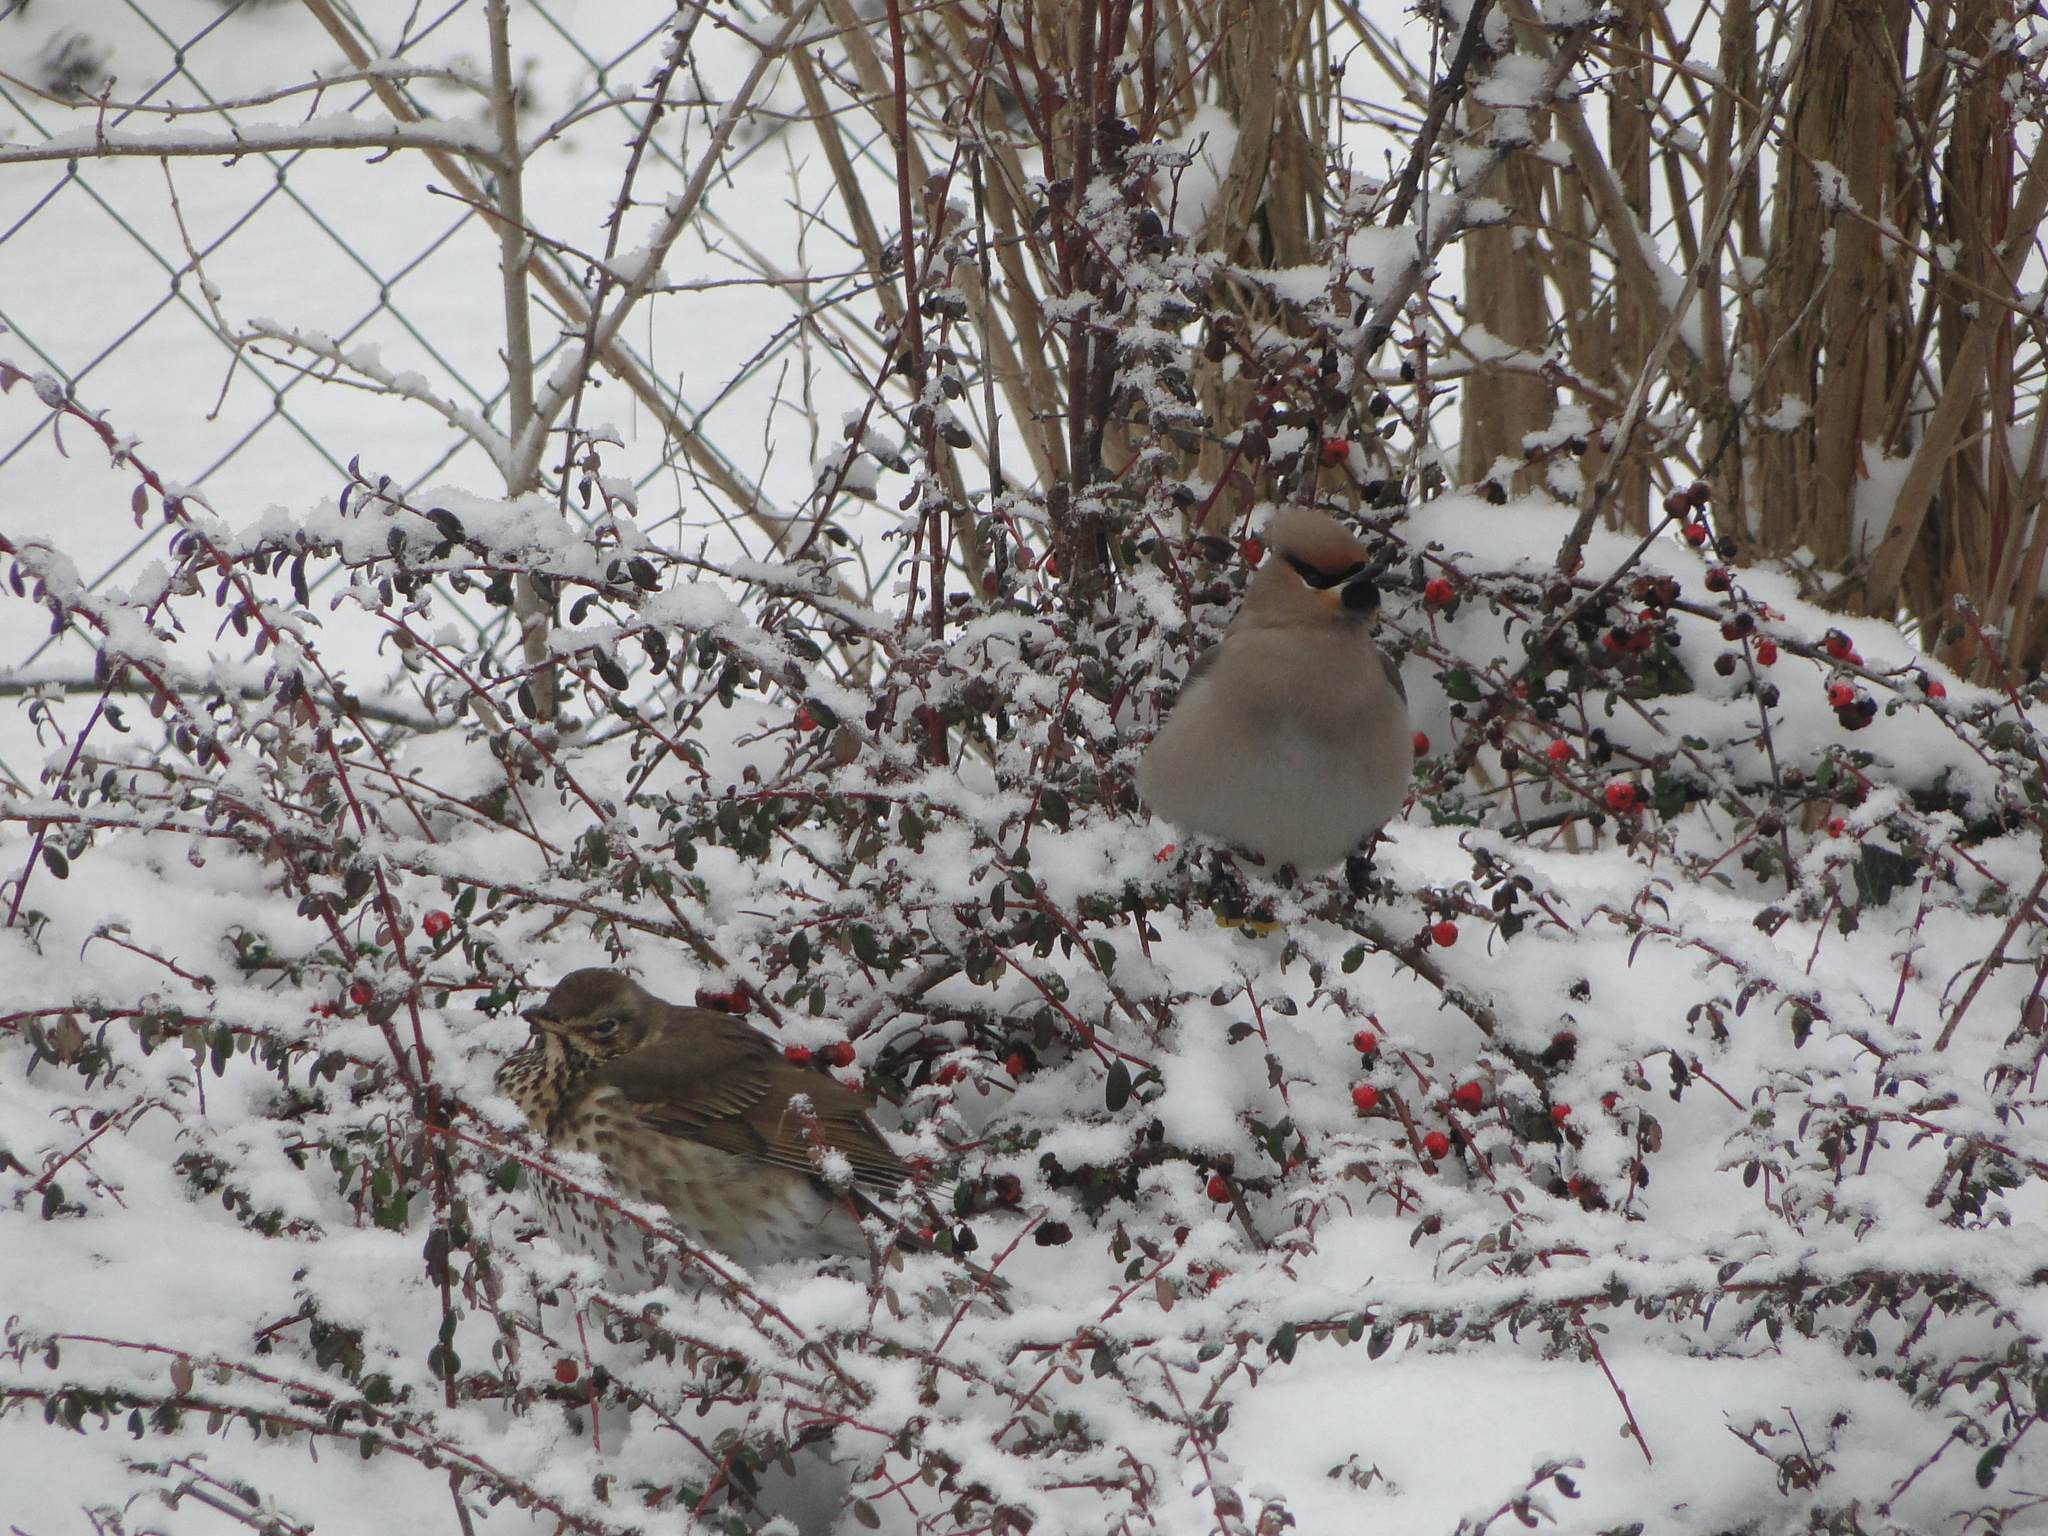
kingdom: Animalia
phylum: Chordata
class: Aves
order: Passeriformes
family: Bombycillidae
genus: Bombycilla
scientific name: Bombycilla garrulus
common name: Bohemian waxwing
